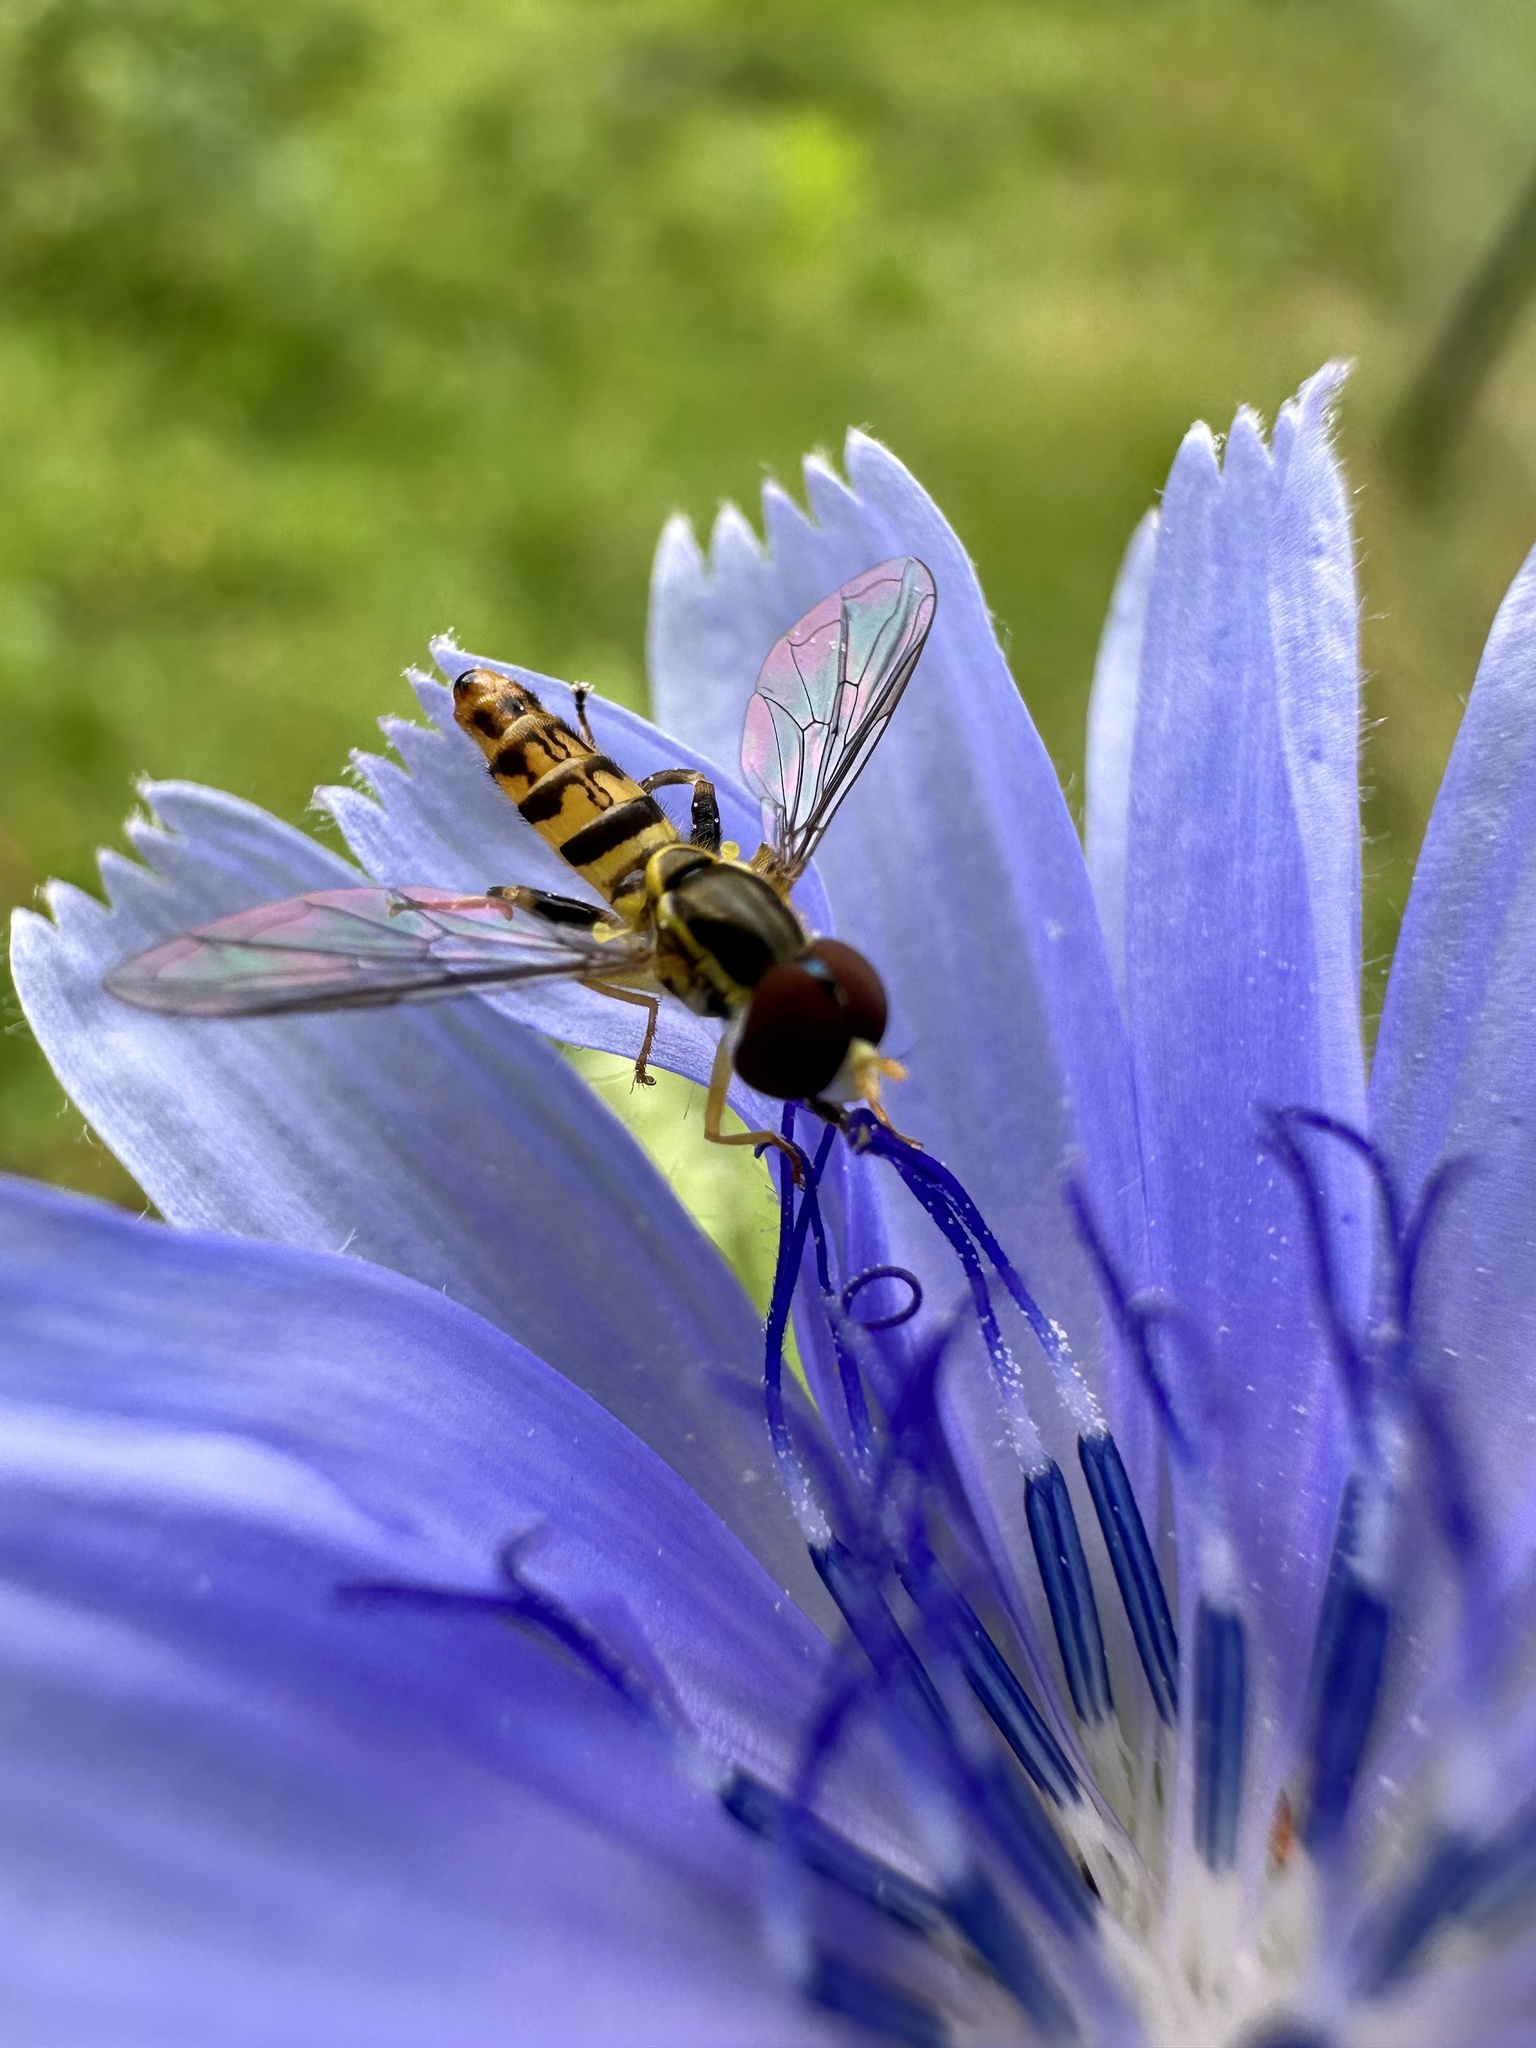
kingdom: Animalia
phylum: Arthropoda
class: Insecta
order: Diptera
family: Syrphidae
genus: Toxomerus
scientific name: Toxomerus geminatus
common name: Eastern calligrapher
